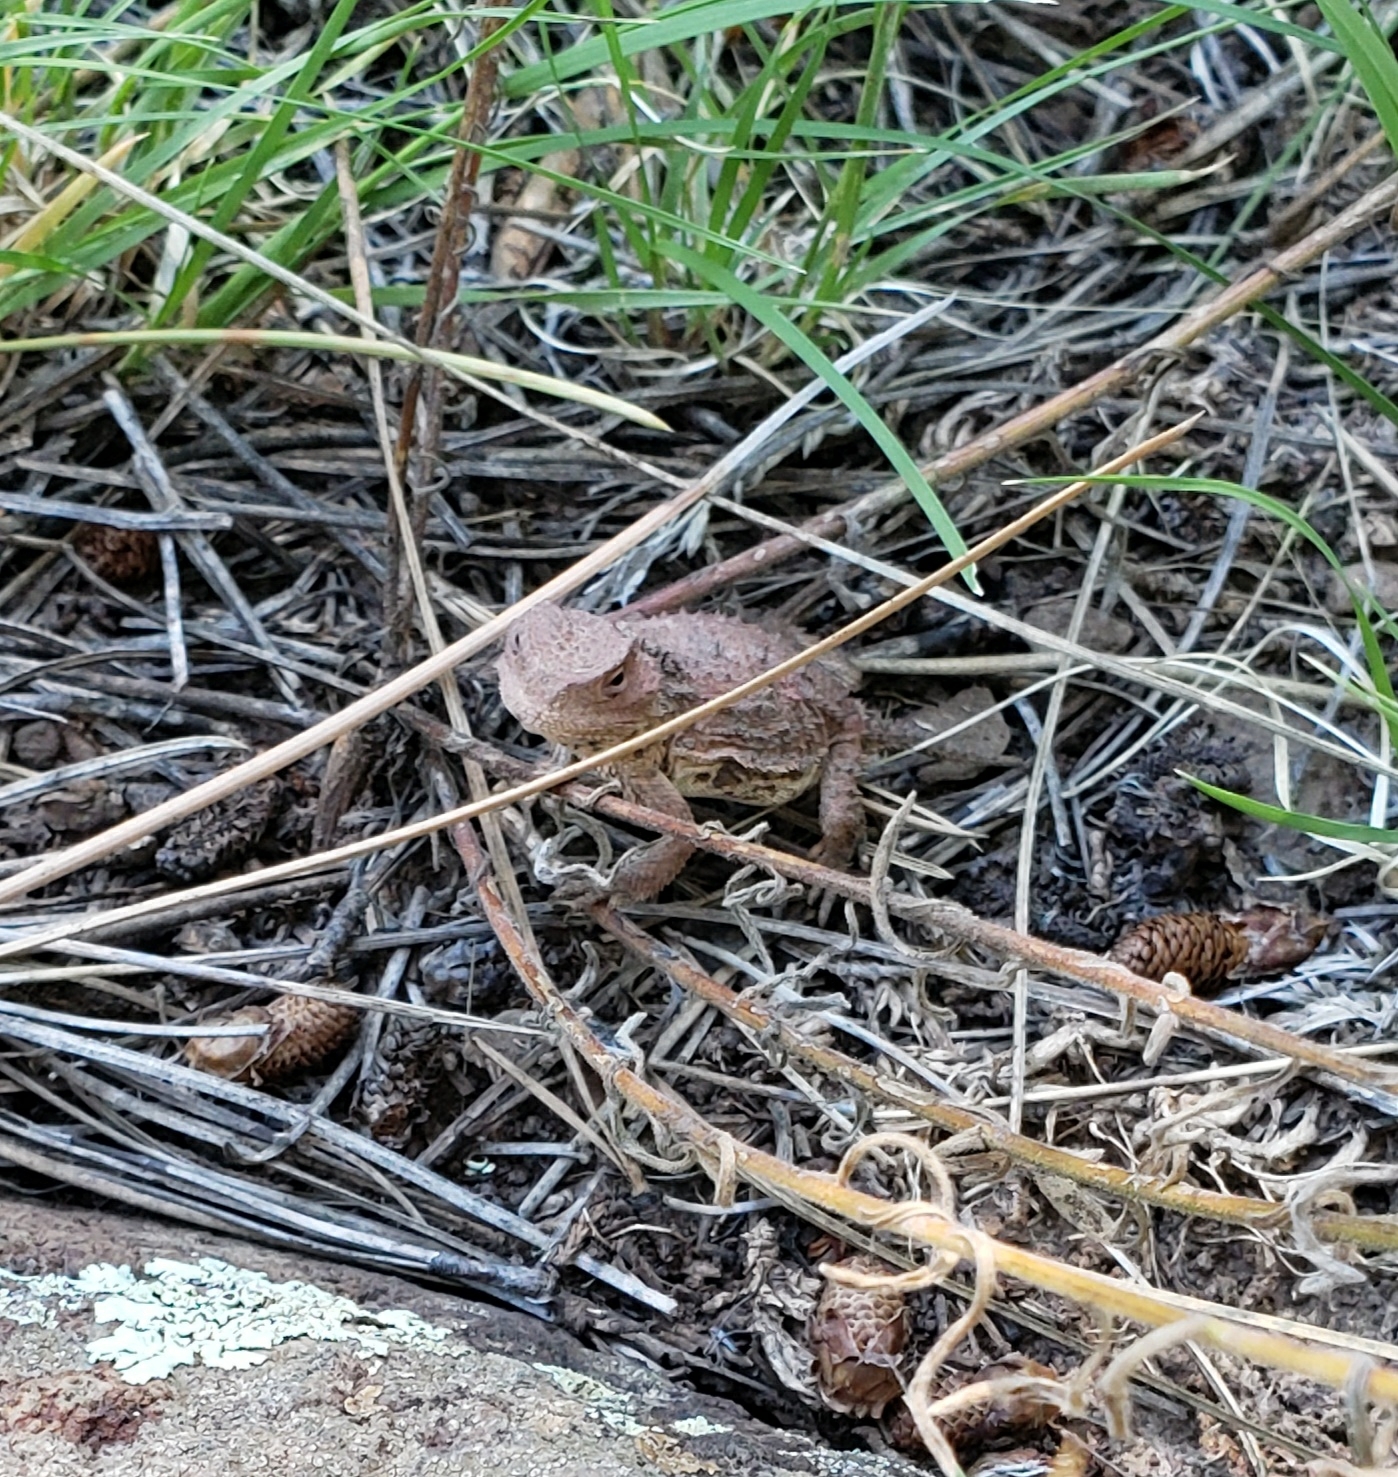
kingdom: Animalia
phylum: Chordata
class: Squamata
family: Phrynosomatidae
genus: Phrynosoma
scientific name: Phrynosoma hernandesi
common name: Greater short-horned lizard
